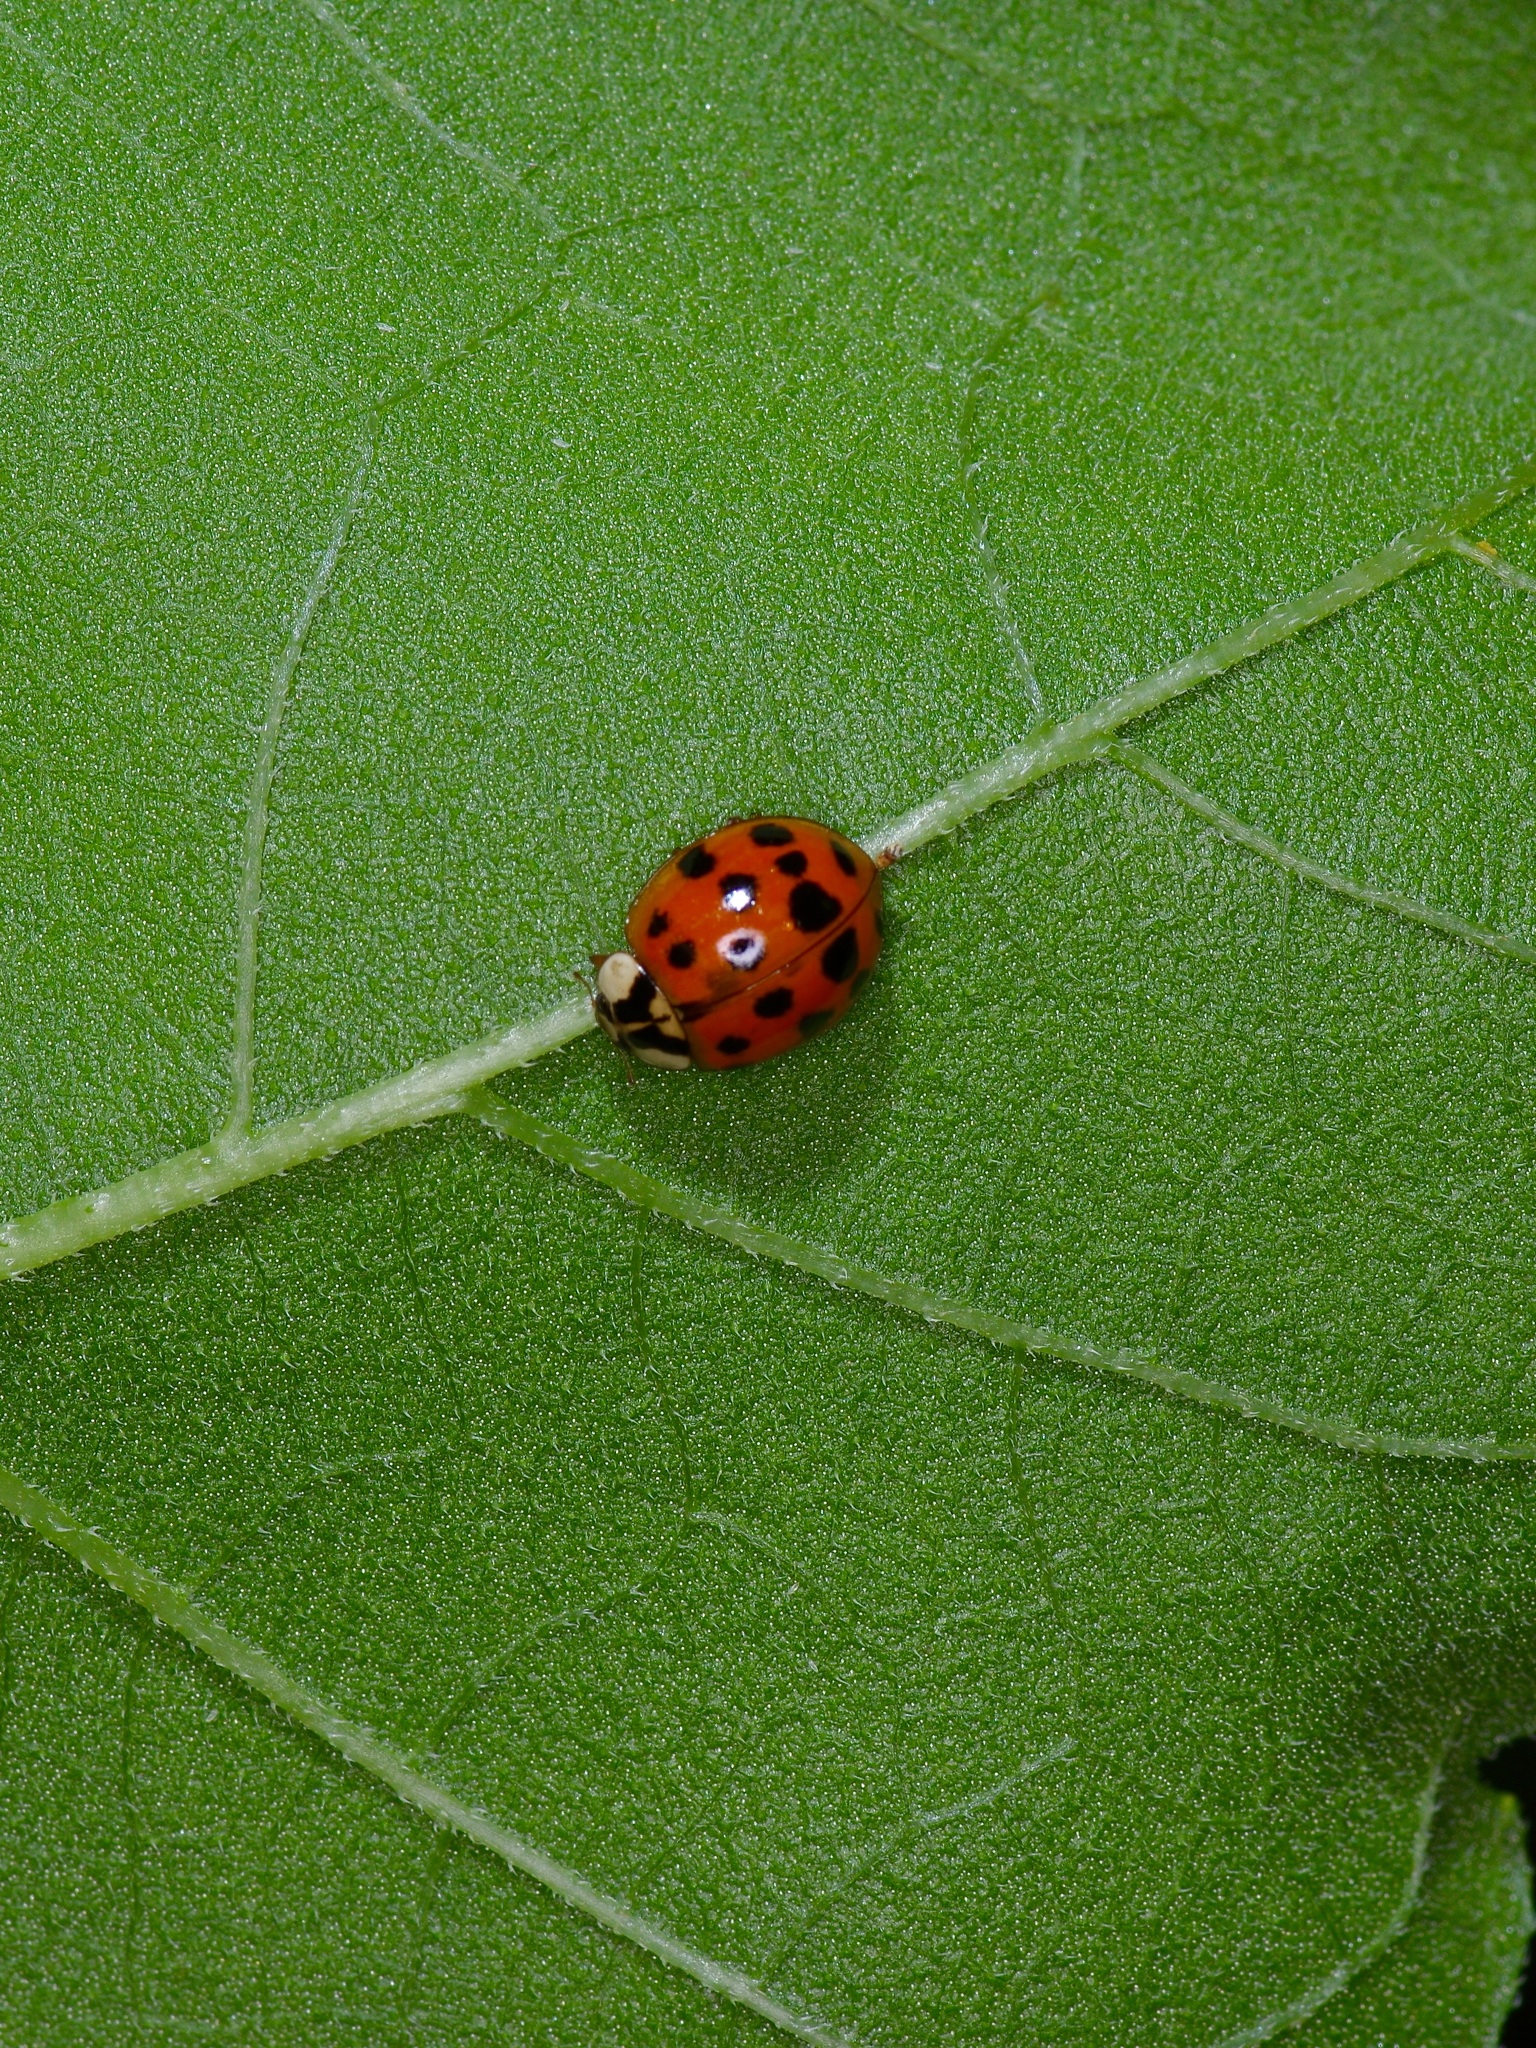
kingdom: Animalia
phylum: Arthropoda
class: Insecta
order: Coleoptera
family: Coccinellidae
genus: Harmonia
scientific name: Harmonia axyridis
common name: Harlequin ladybird
